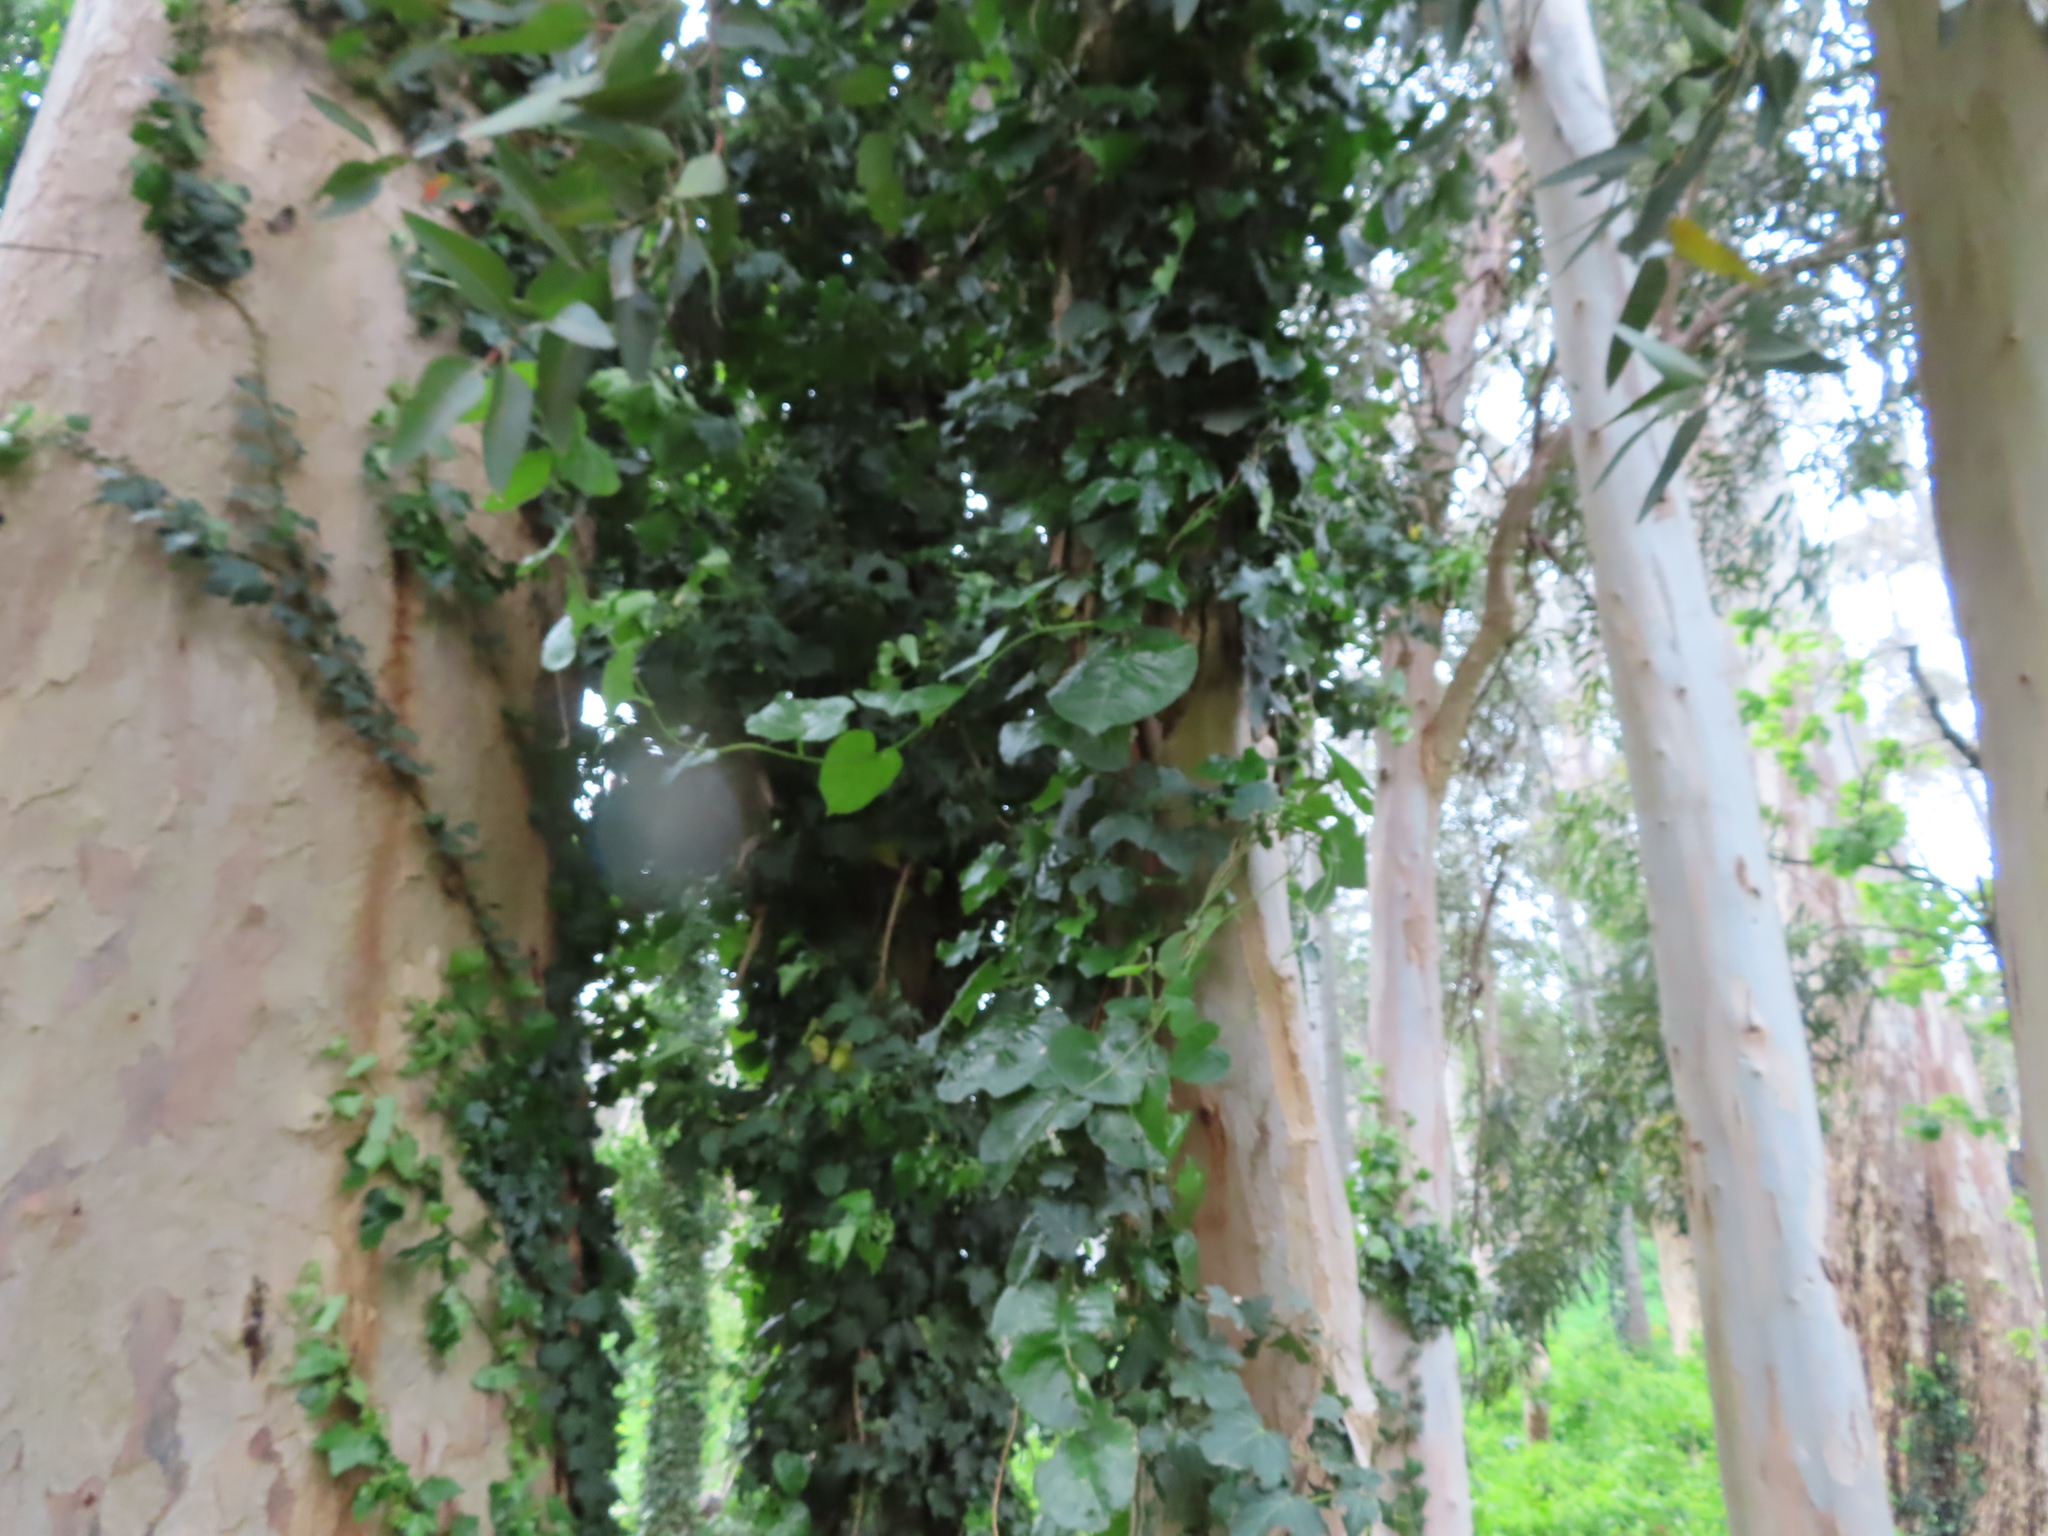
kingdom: Plantae
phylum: Tracheophyta
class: Magnoliopsida
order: Caryophyllales
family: Basellaceae
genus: Anredera
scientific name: Anredera cordifolia
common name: Heartleaf madeiravine
